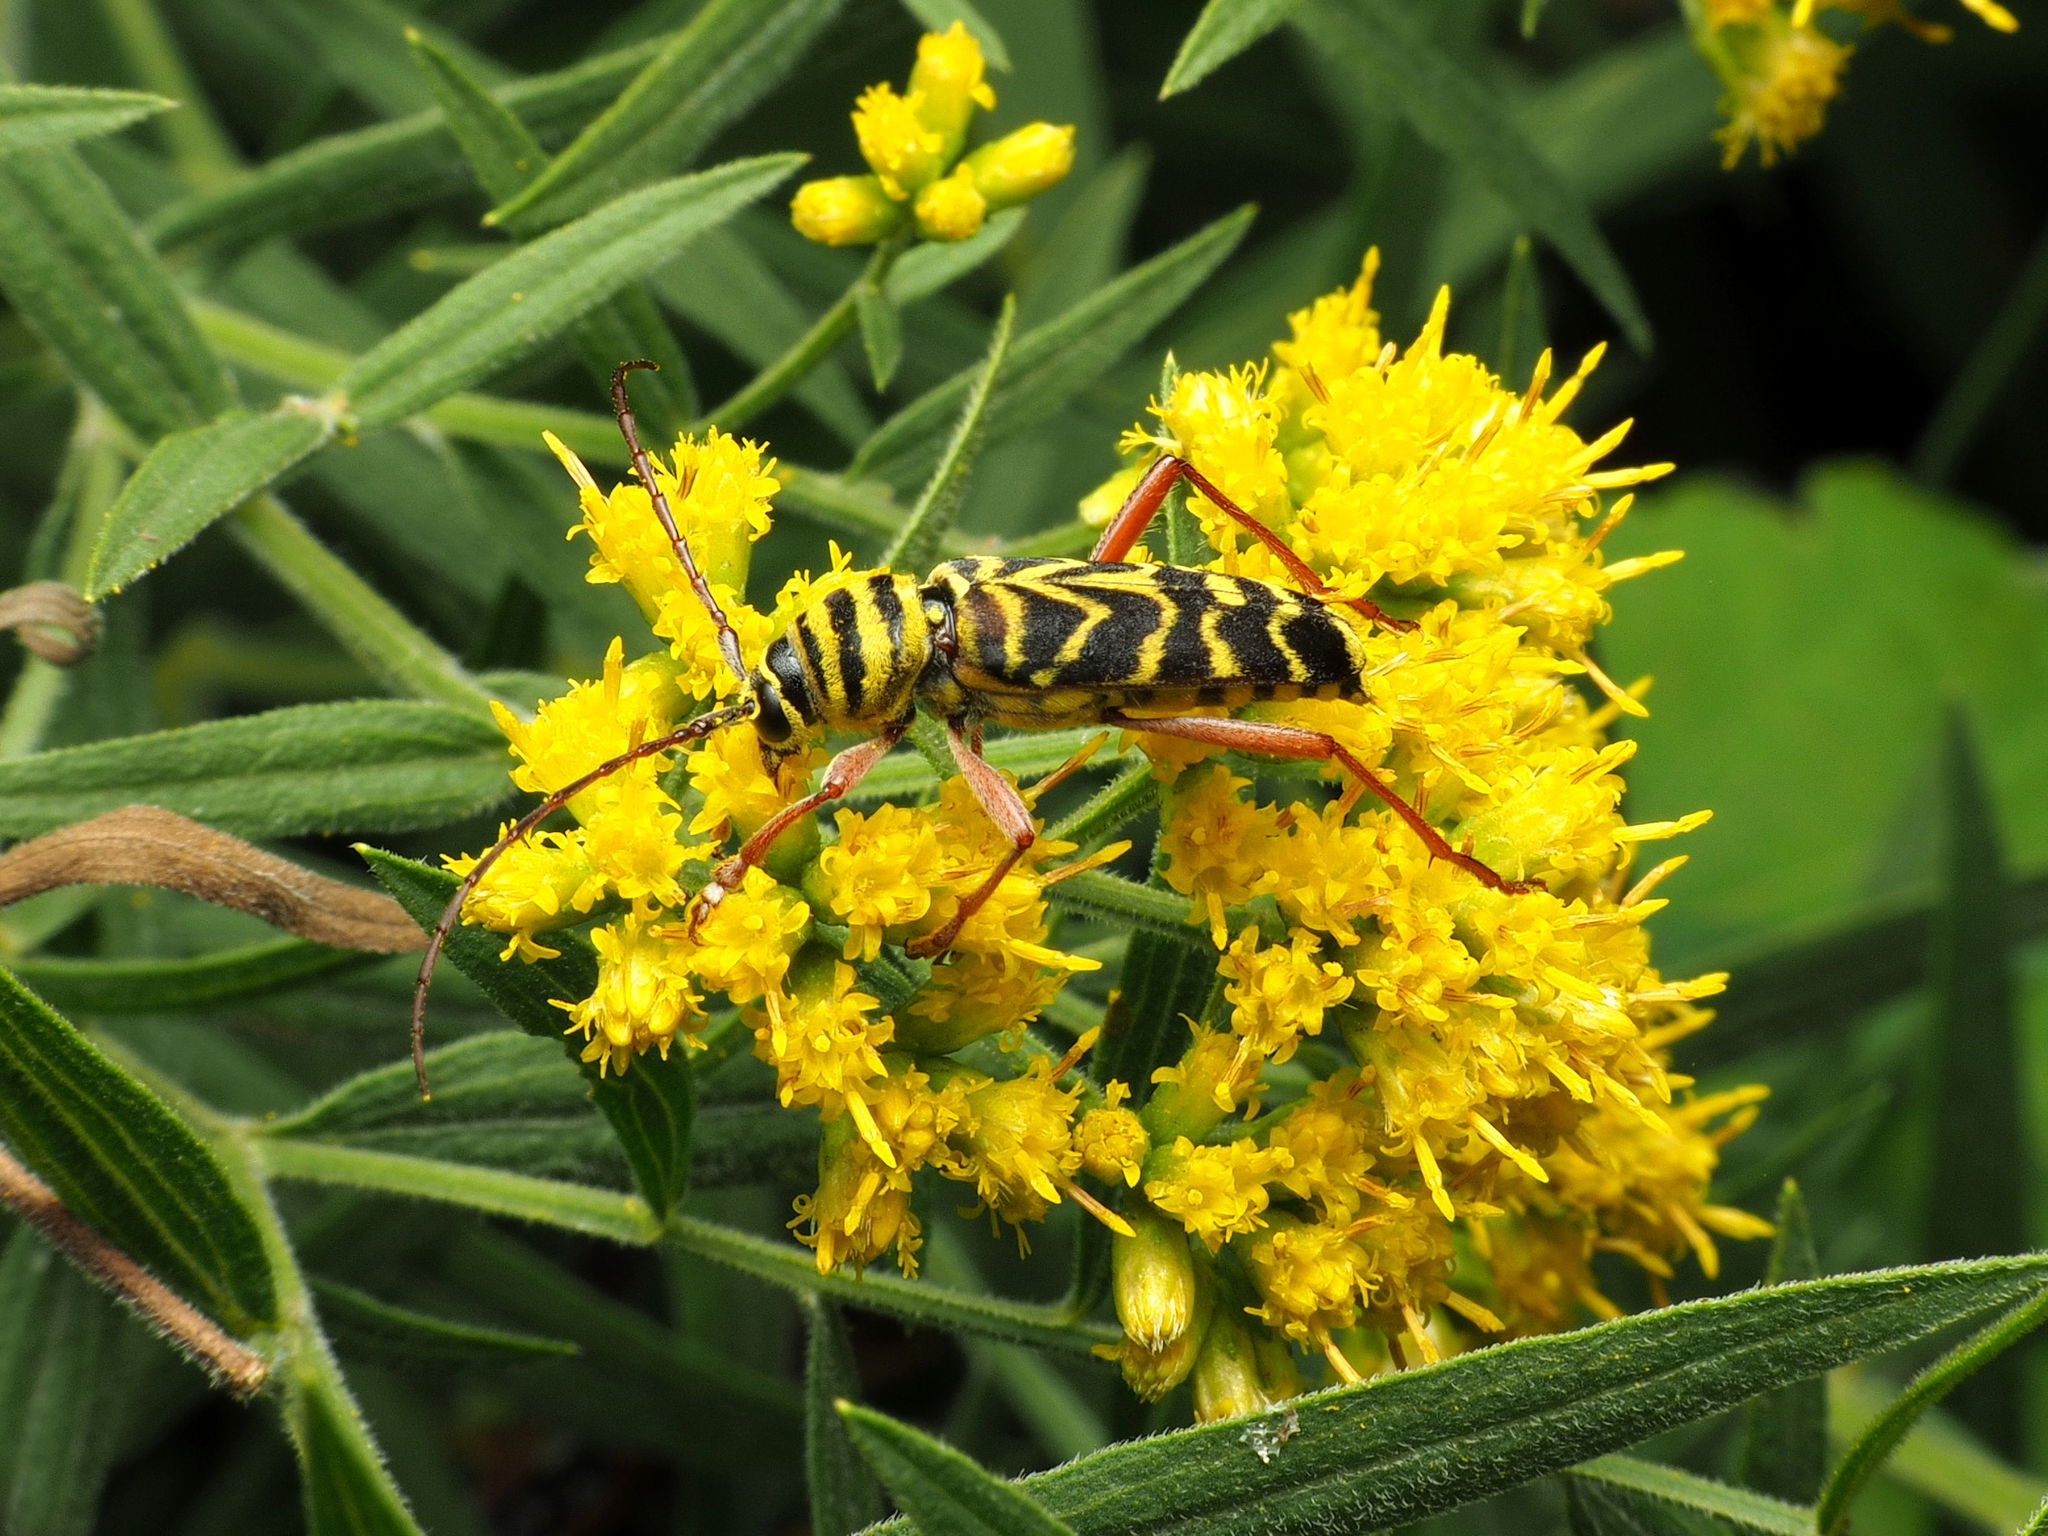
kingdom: Animalia
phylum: Arthropoda
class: Insecta
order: Coleoptera
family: Cerambycidae
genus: Megacyllene
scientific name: Megacyllene robiniae
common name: Locust borer
